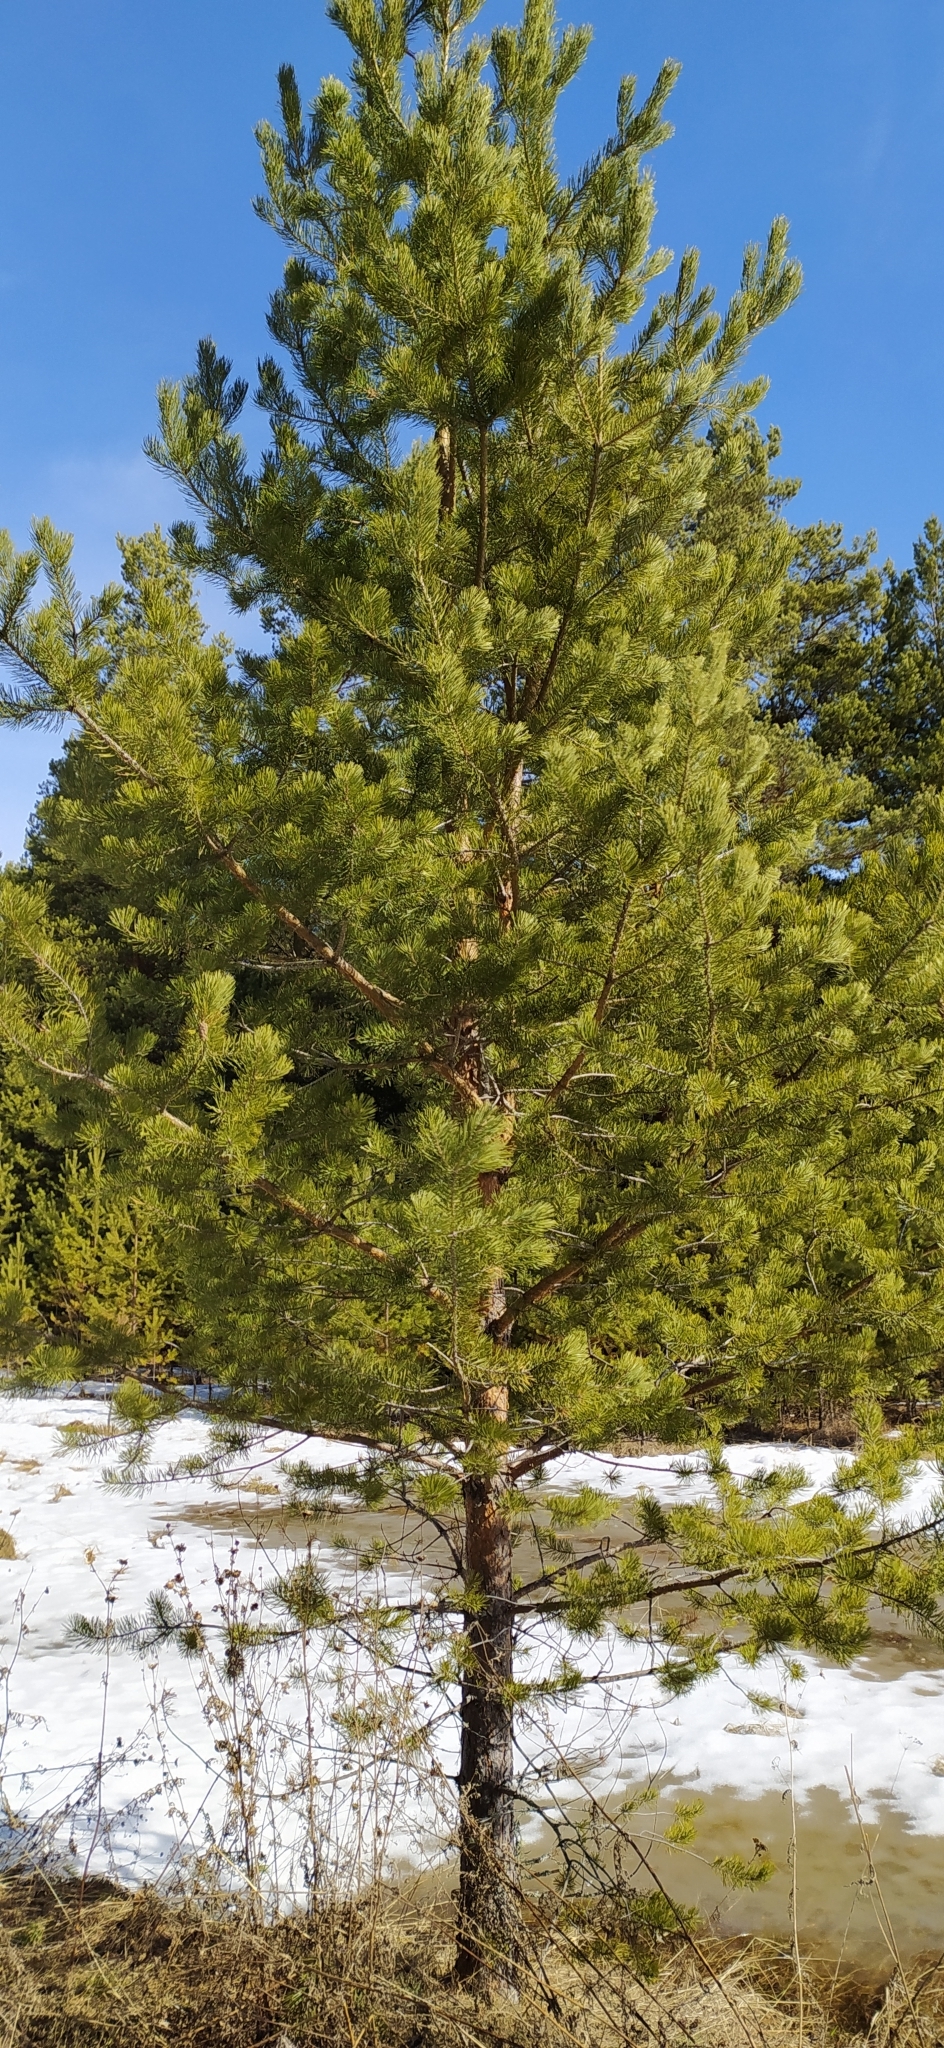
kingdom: Plantae
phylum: Tracheophyta
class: Pinopsida
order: Pinales
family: Pinaceae
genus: Pinus
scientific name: Pinus sylvestris
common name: Scots pine
